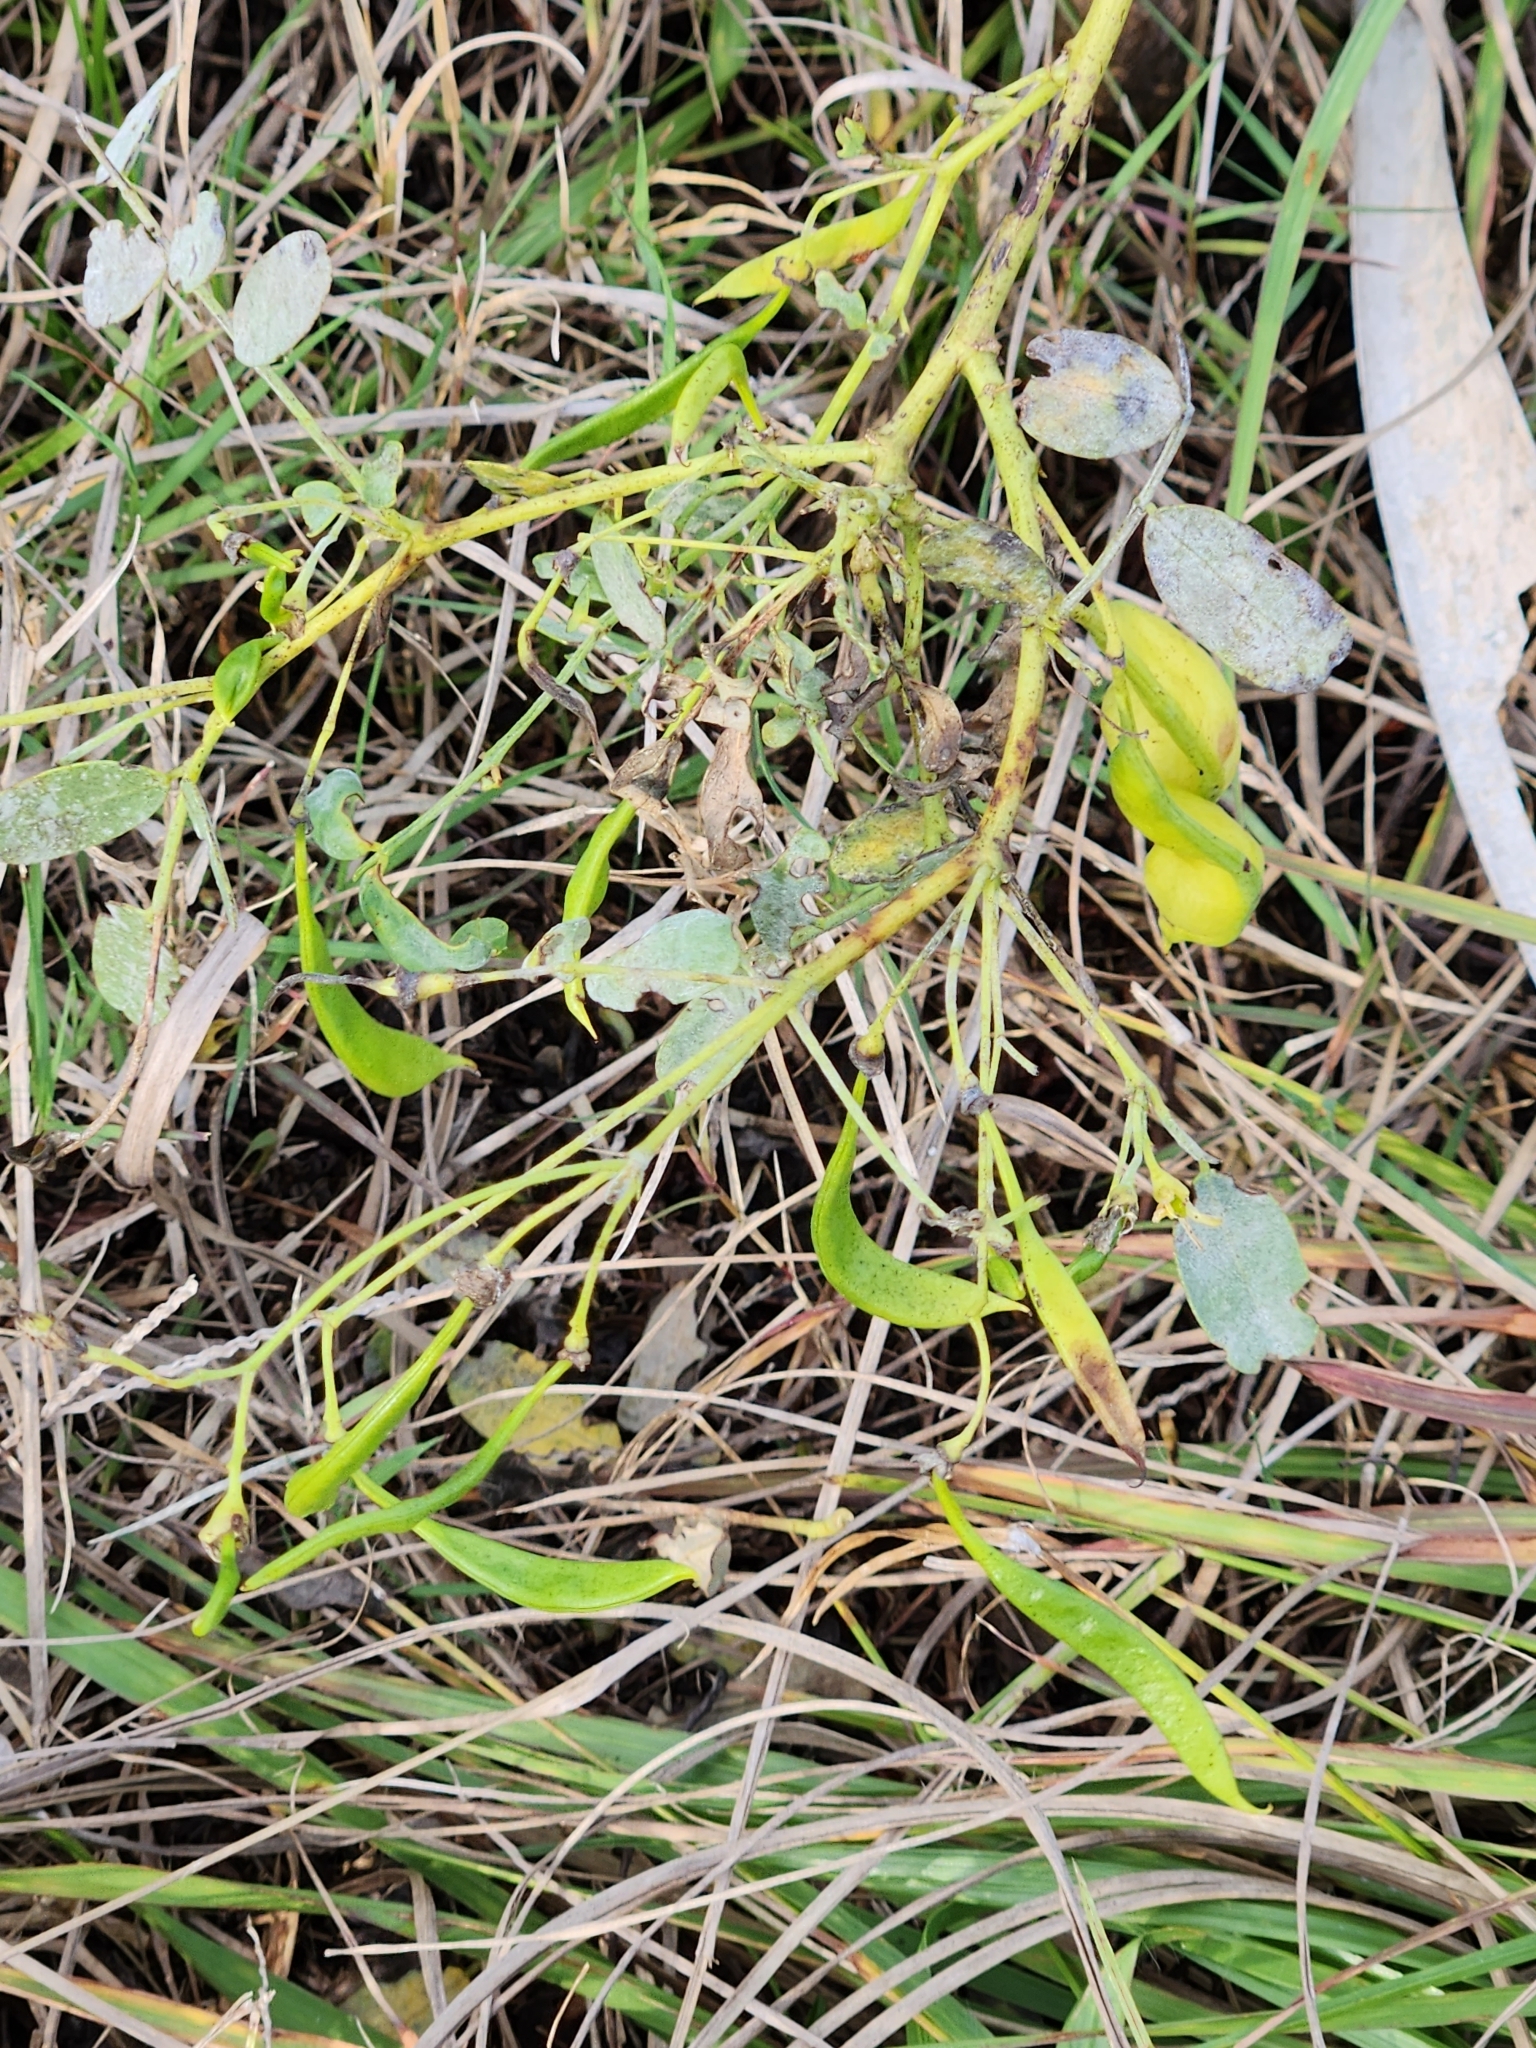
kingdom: Plantae
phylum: Tracheophyta
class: Magnoliopsida
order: Fabales
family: Fabaceae
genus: Sesbania
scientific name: Sesbania vesicaria
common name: Bagpod
